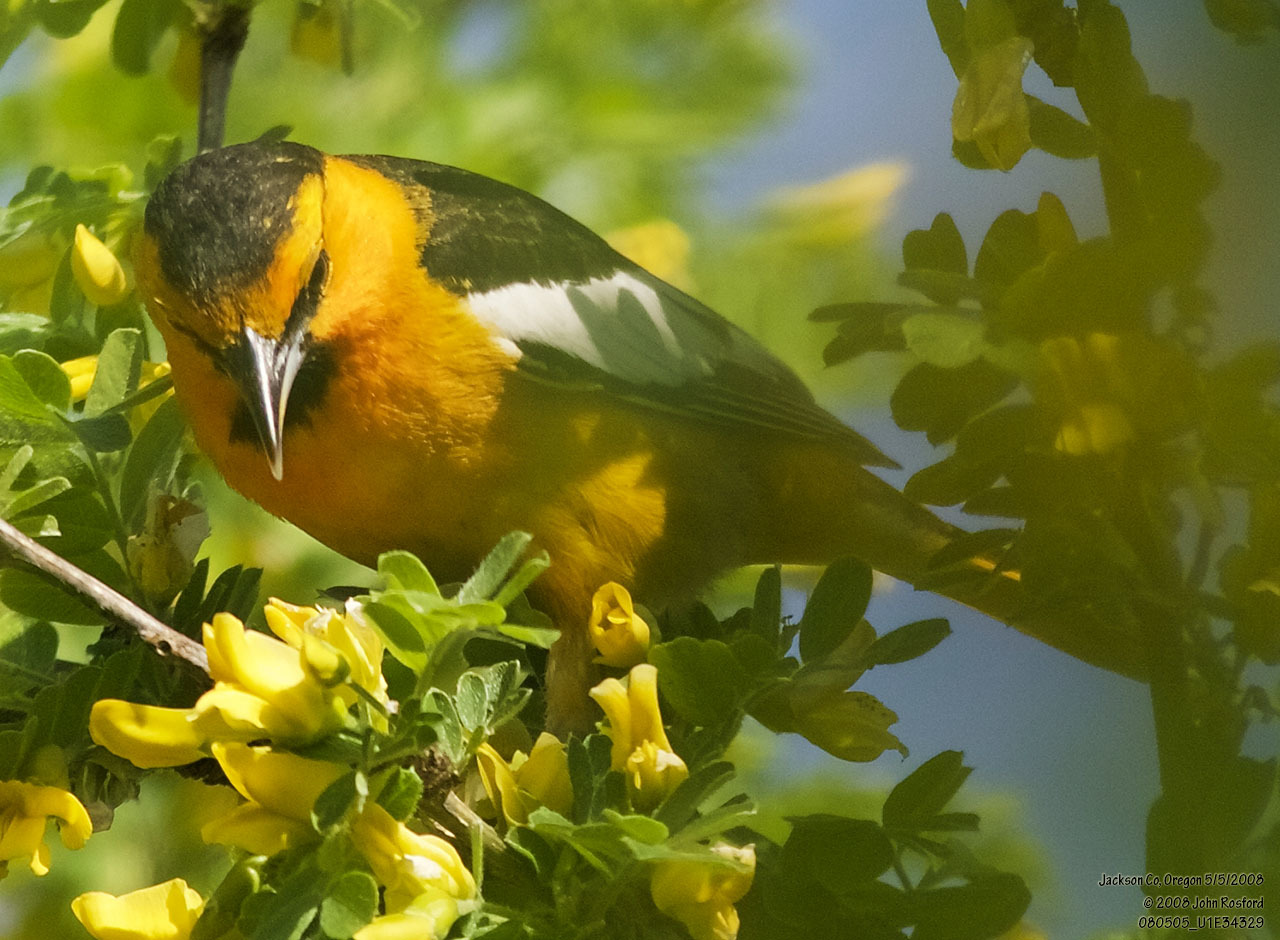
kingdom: Animalia
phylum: Chordata
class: Aves
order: Passeriformes
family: Icteridae
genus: Icterus
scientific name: Icterus bullockii
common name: Bullock's oriole
